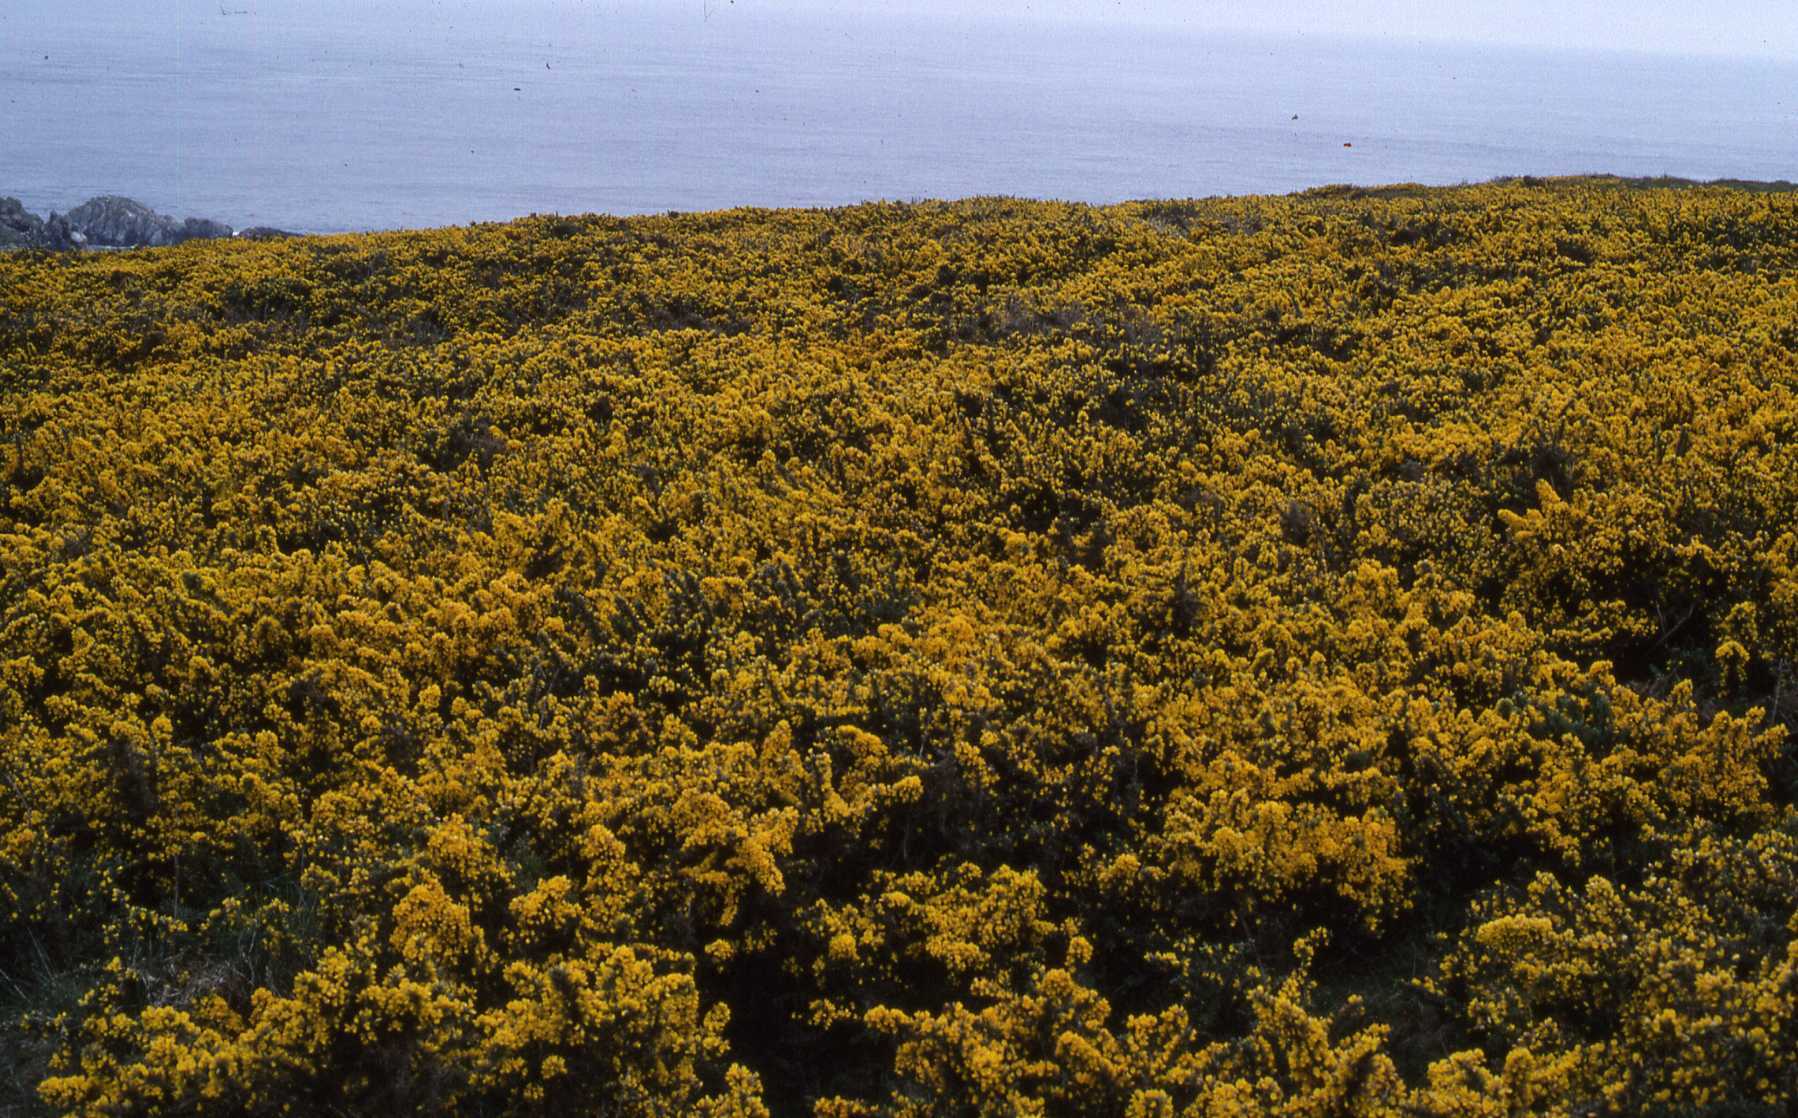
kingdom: Plantae
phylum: Tracheophyta
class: Magnoliopsida
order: Fabales
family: Fabaceae
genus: Ulex
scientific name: Ulex europaeus
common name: Common gorse
